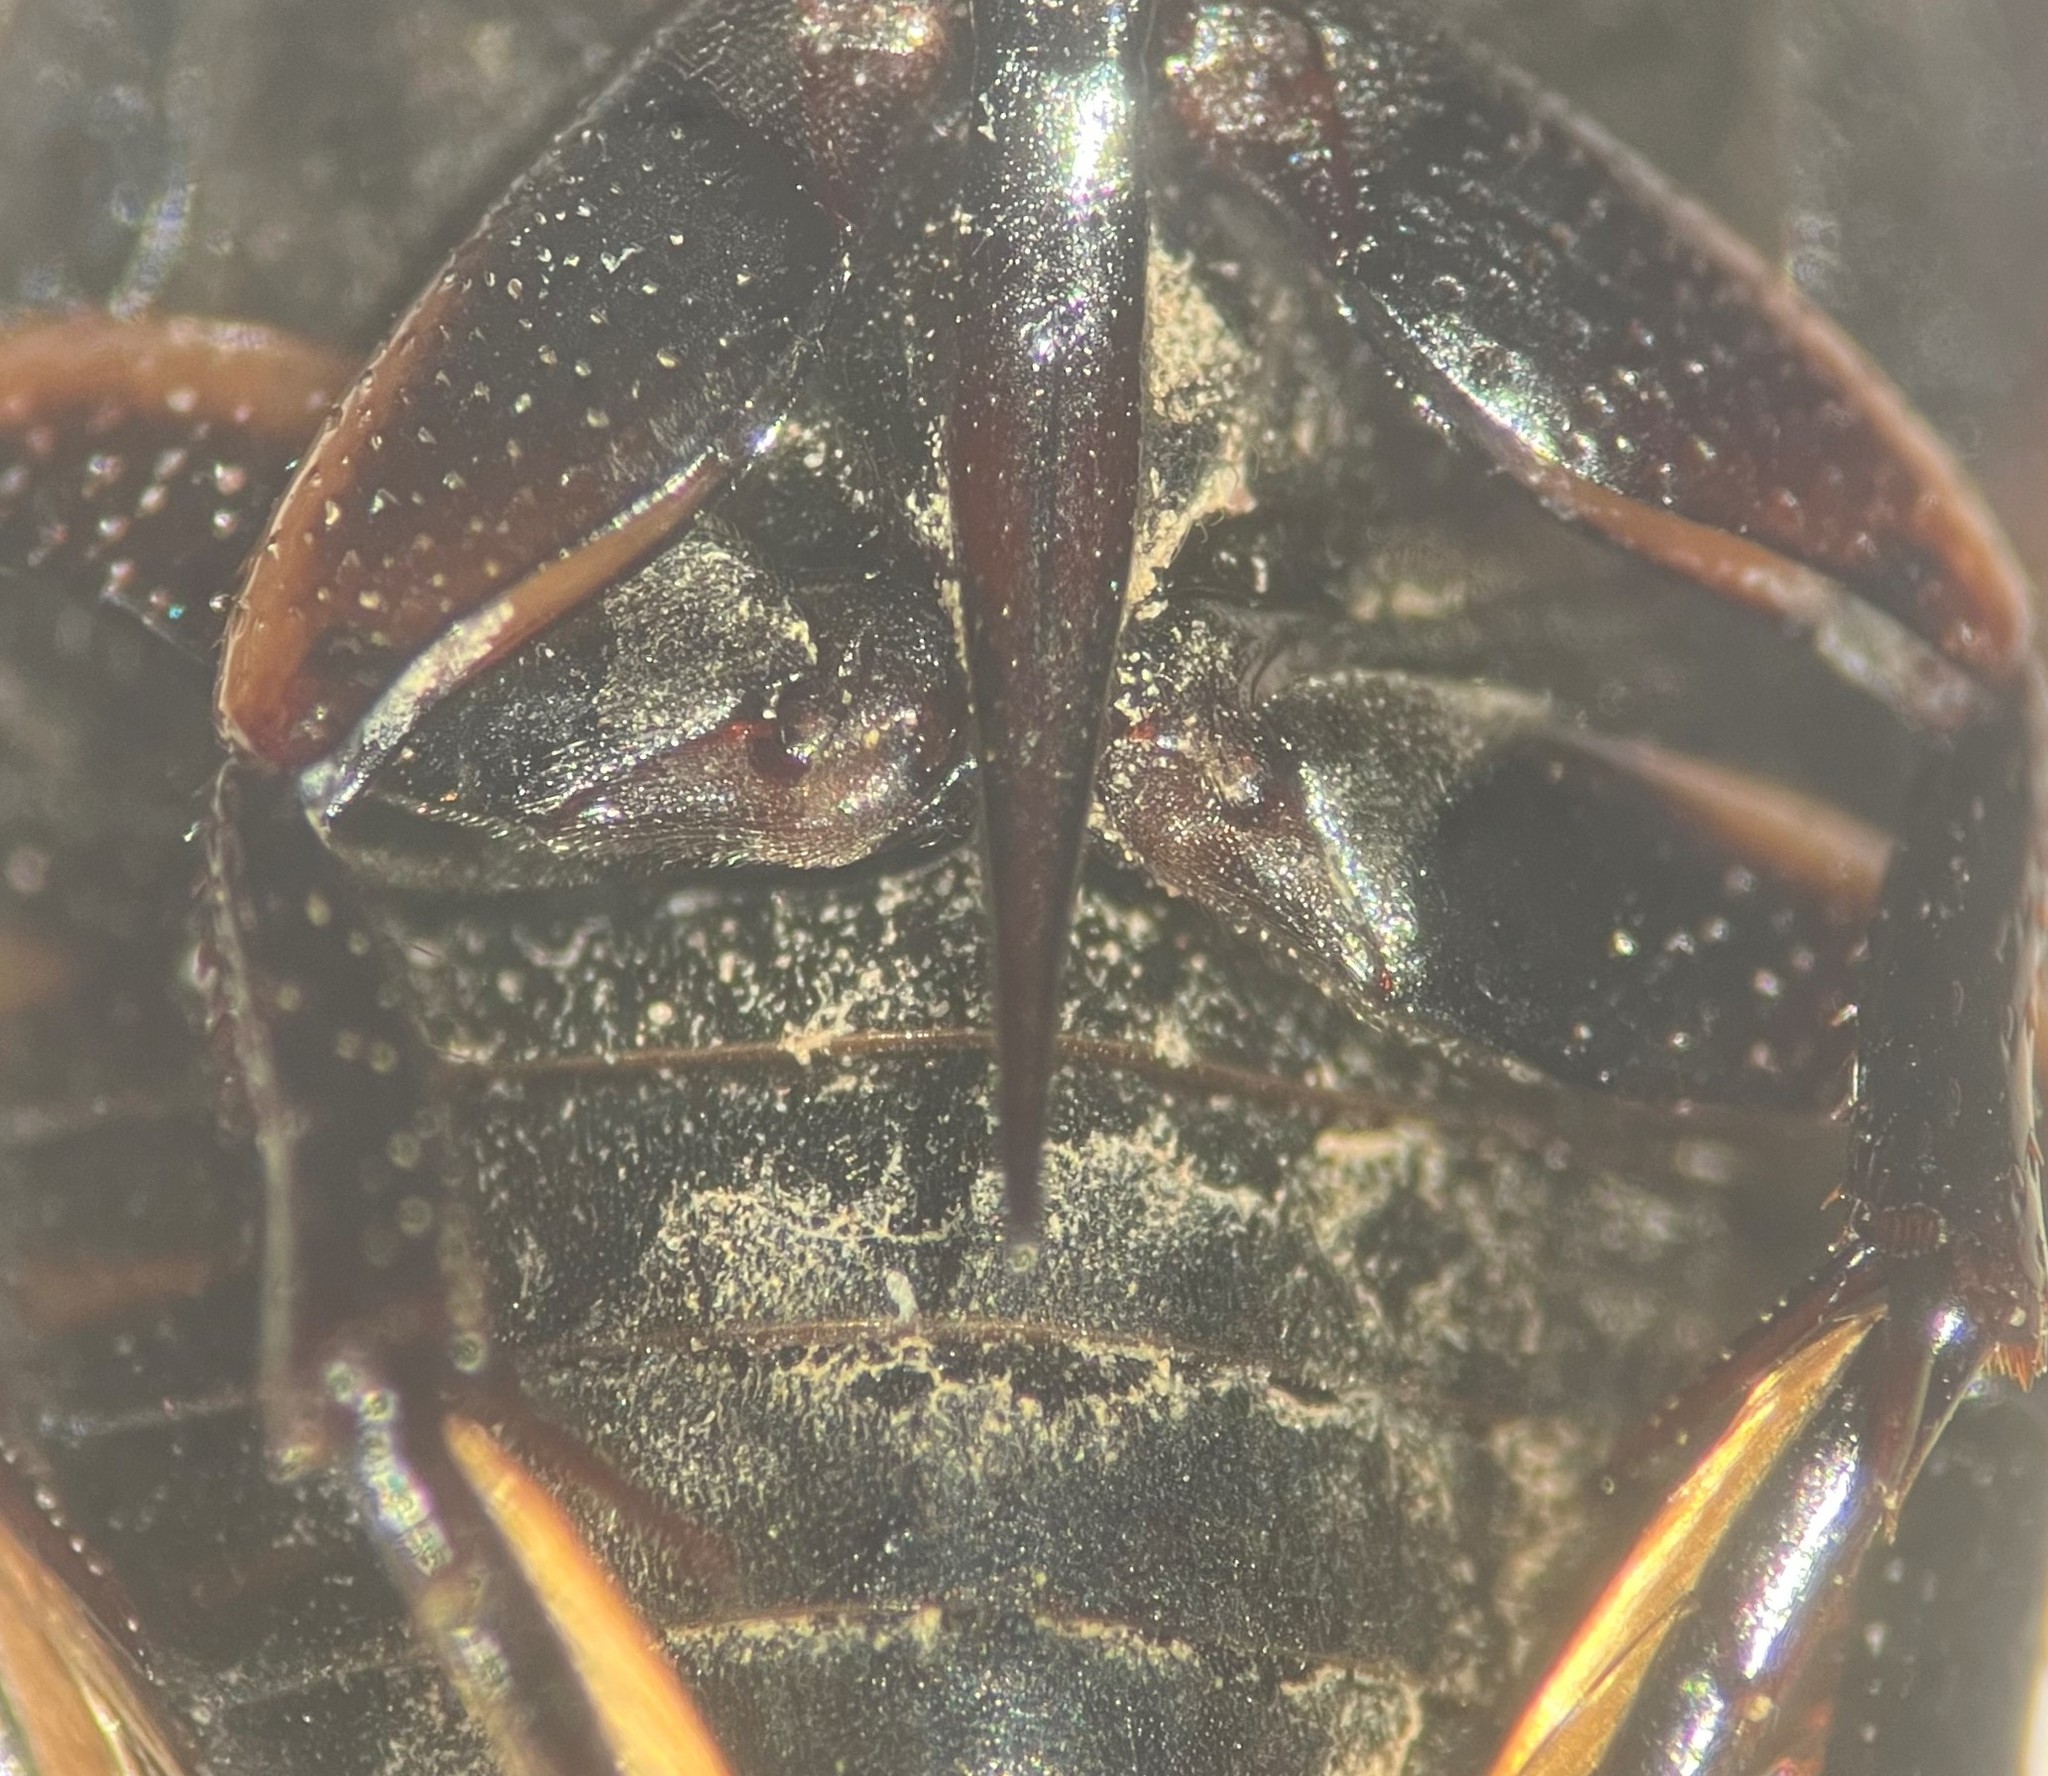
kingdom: Animalia
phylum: Arthropoda
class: Insecta
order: Coleoptera
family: Hydrophilidae
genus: Tropisternus
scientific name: Tropisternus affinis
